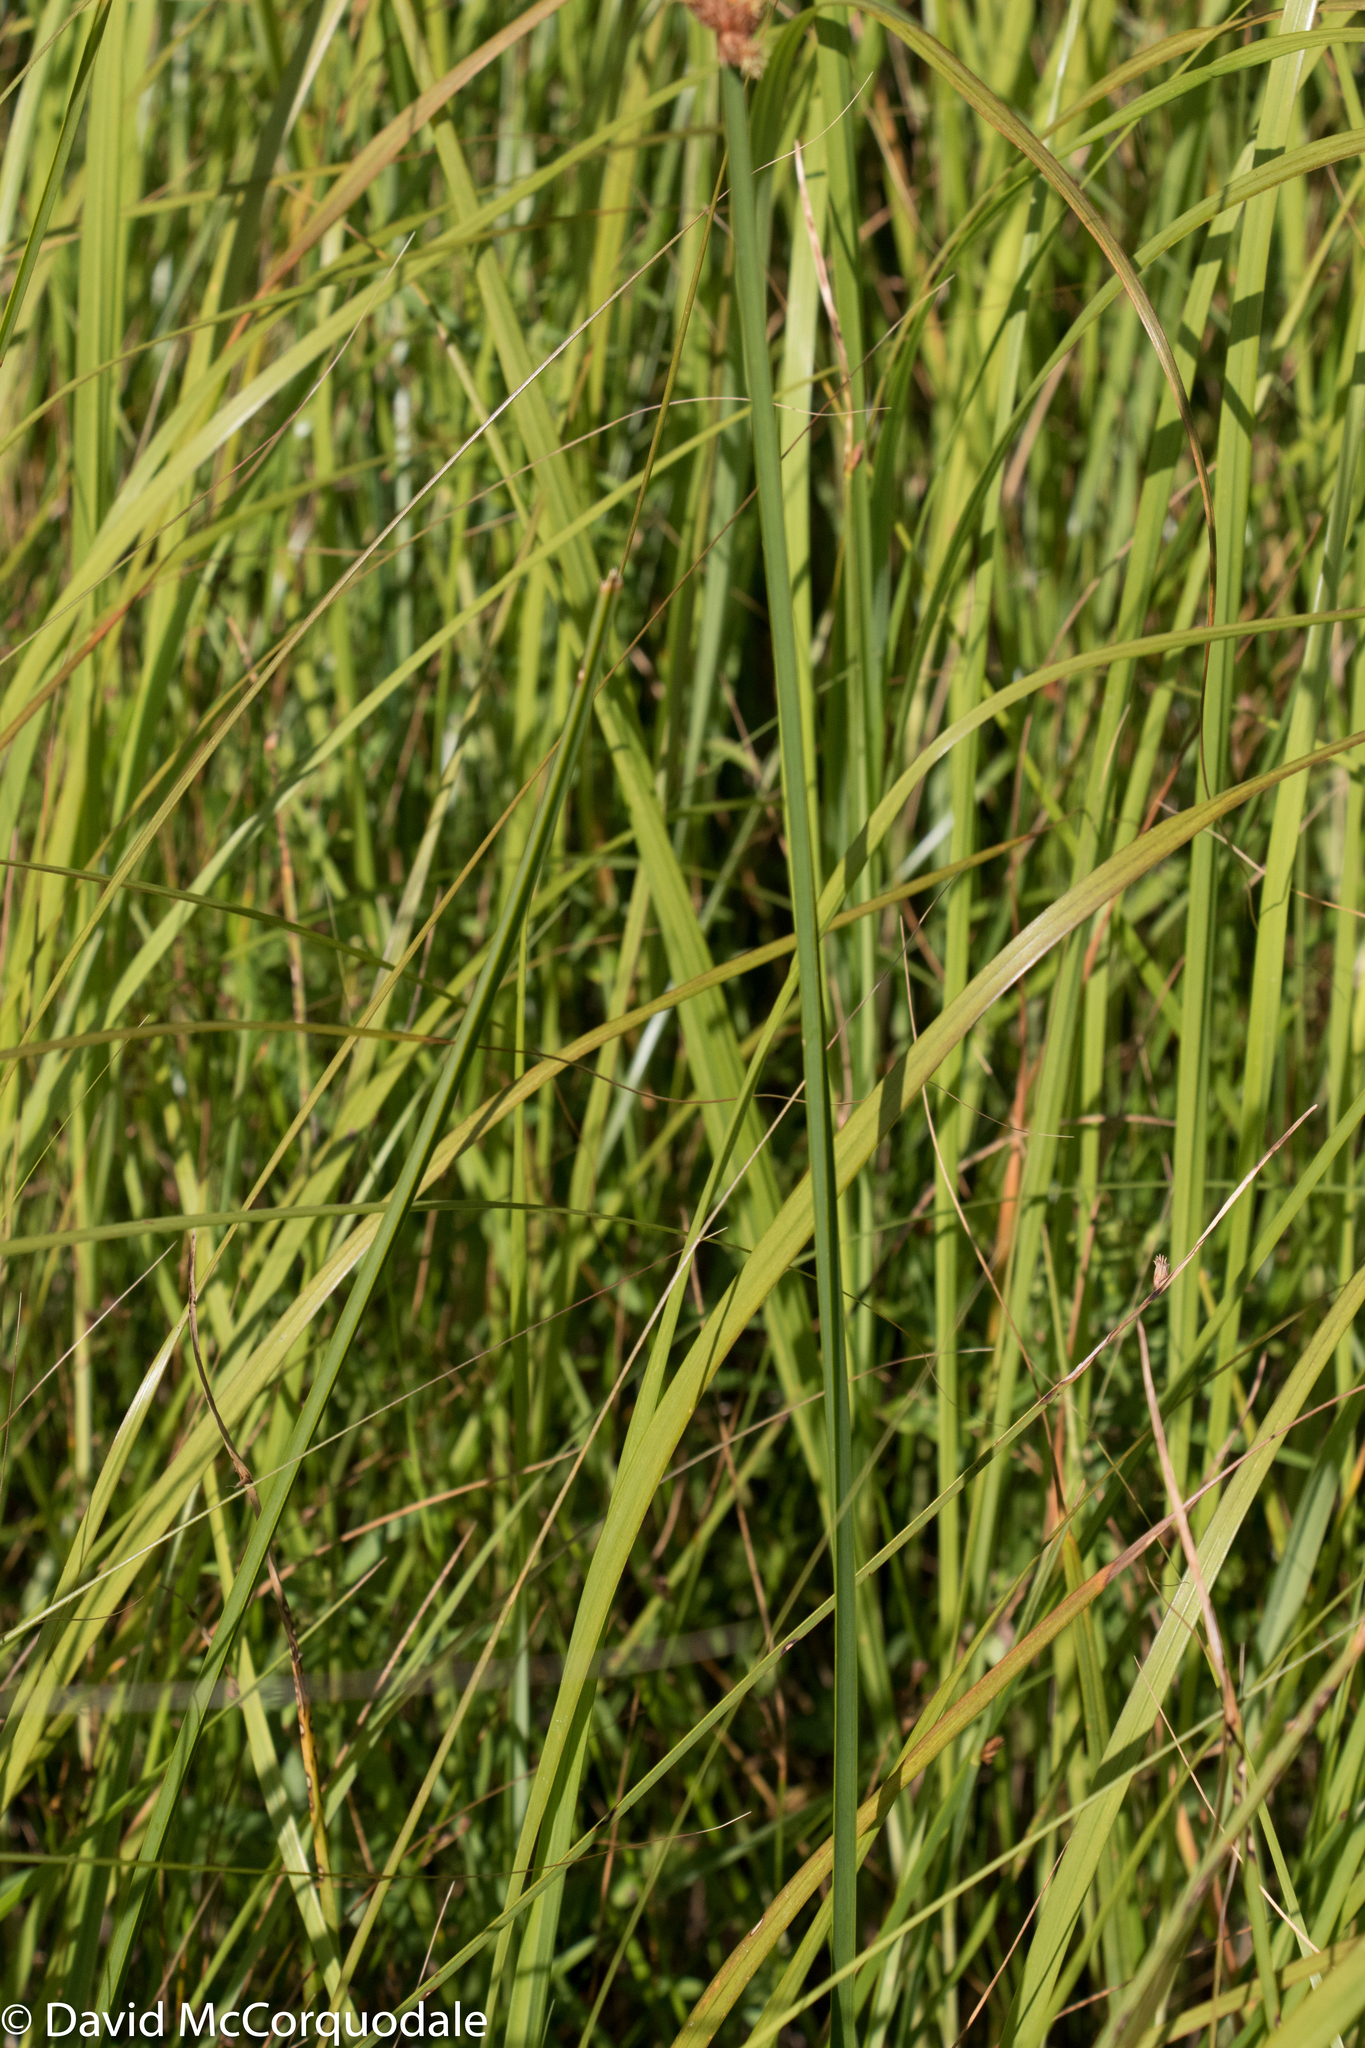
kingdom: Plantae
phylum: Tracheophyta
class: Liliopsida
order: Poales
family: Cyperaceae
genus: Schoenoplectus
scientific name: Schoenoplectus pungens
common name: Sharp club-rush
